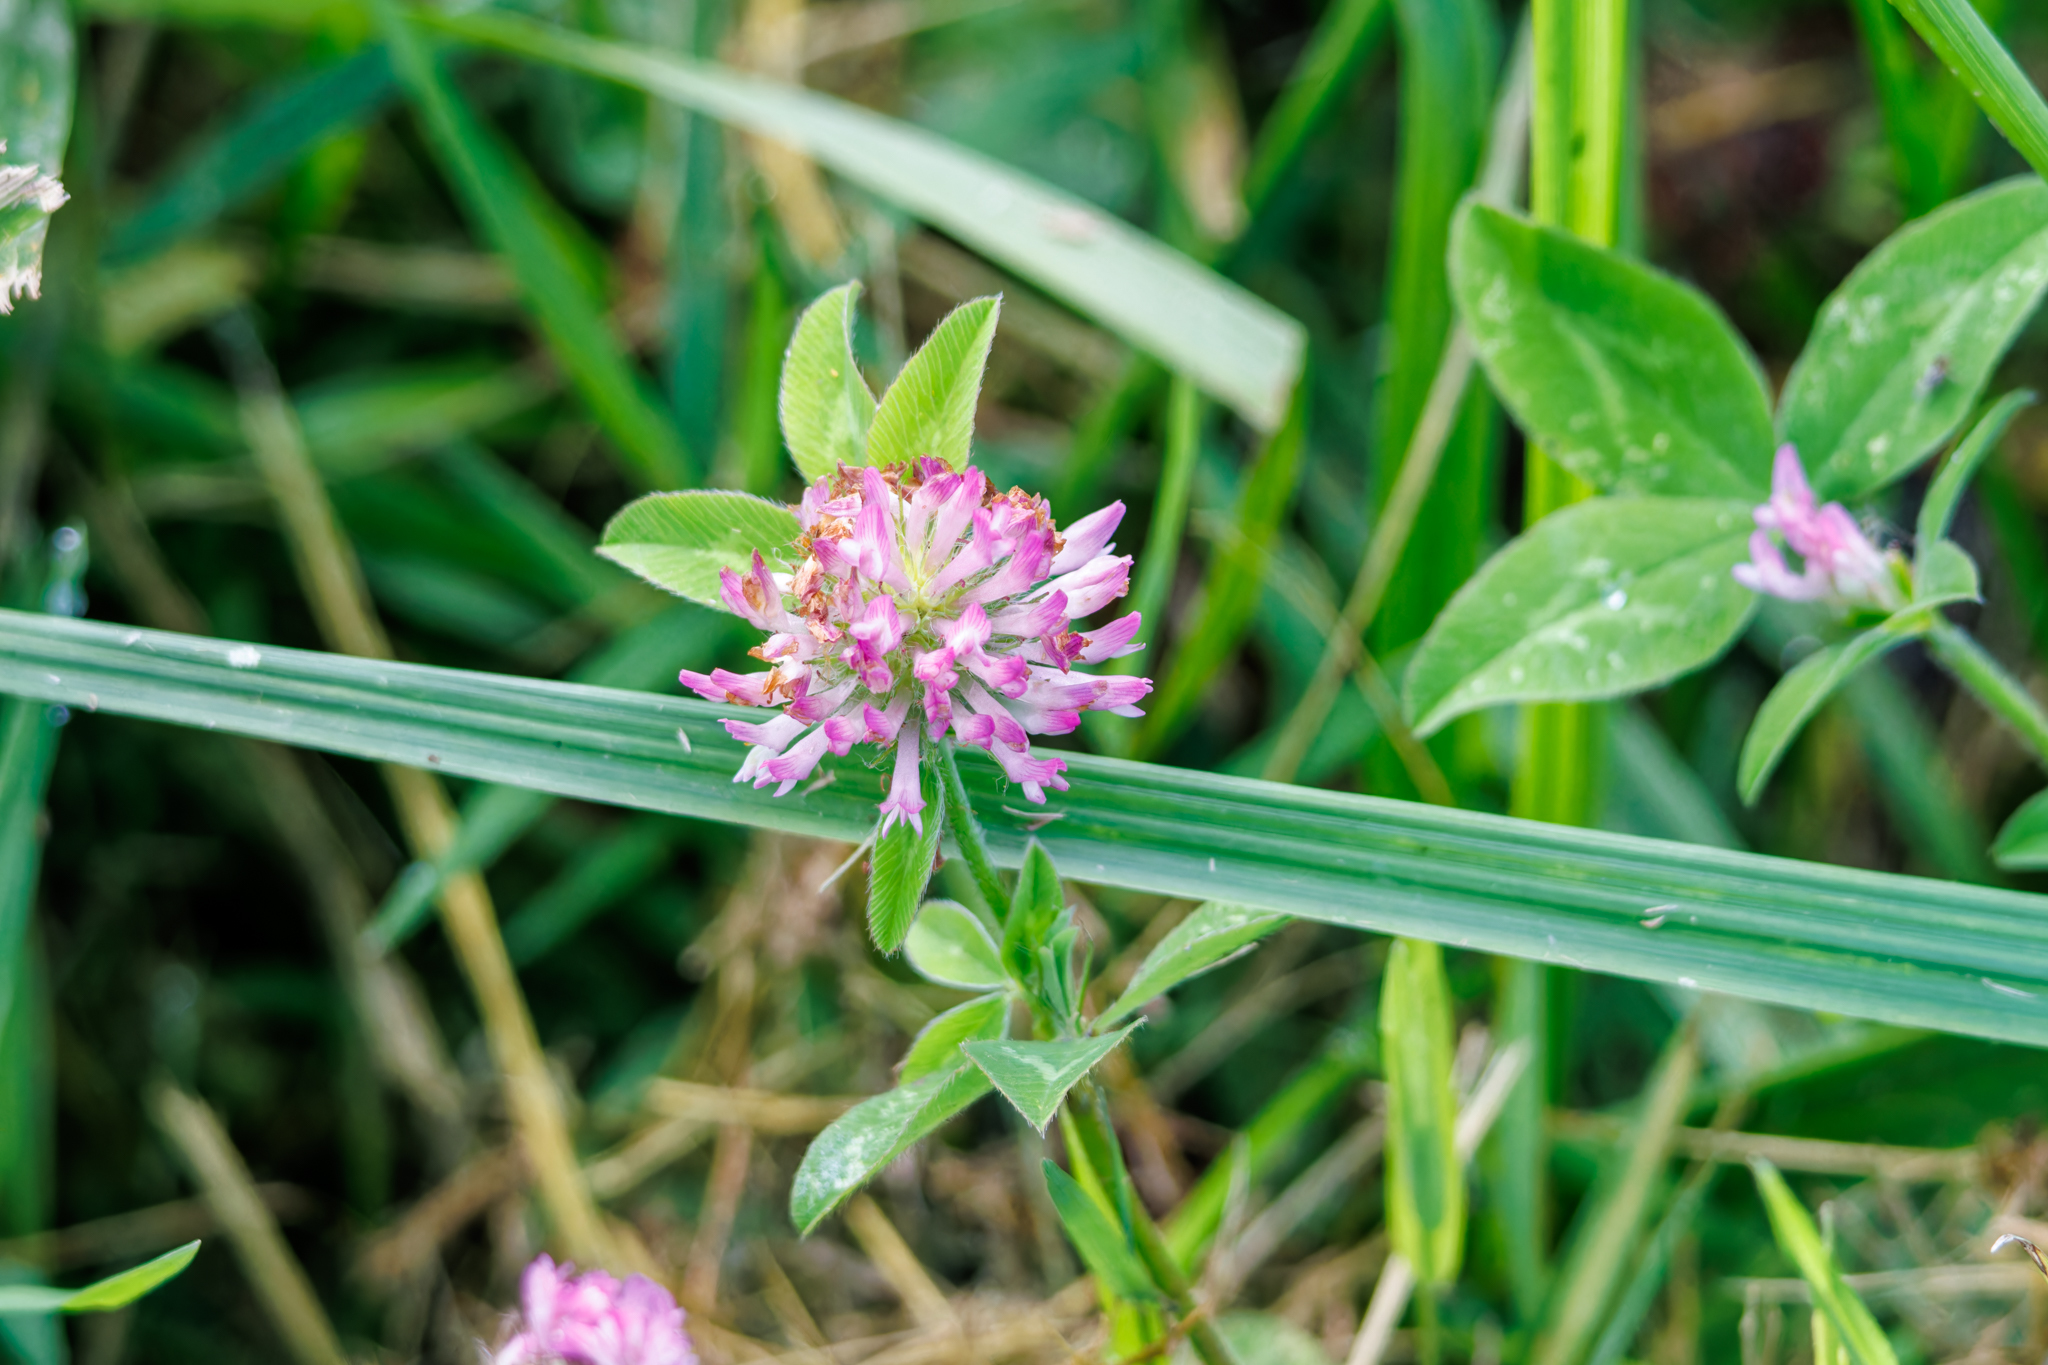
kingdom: Plantae
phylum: Tracheophyta
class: Magnoliopsida
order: Fabales
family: Fabaceae
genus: Trifolium
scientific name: Trifolium pratense
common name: Red clover
